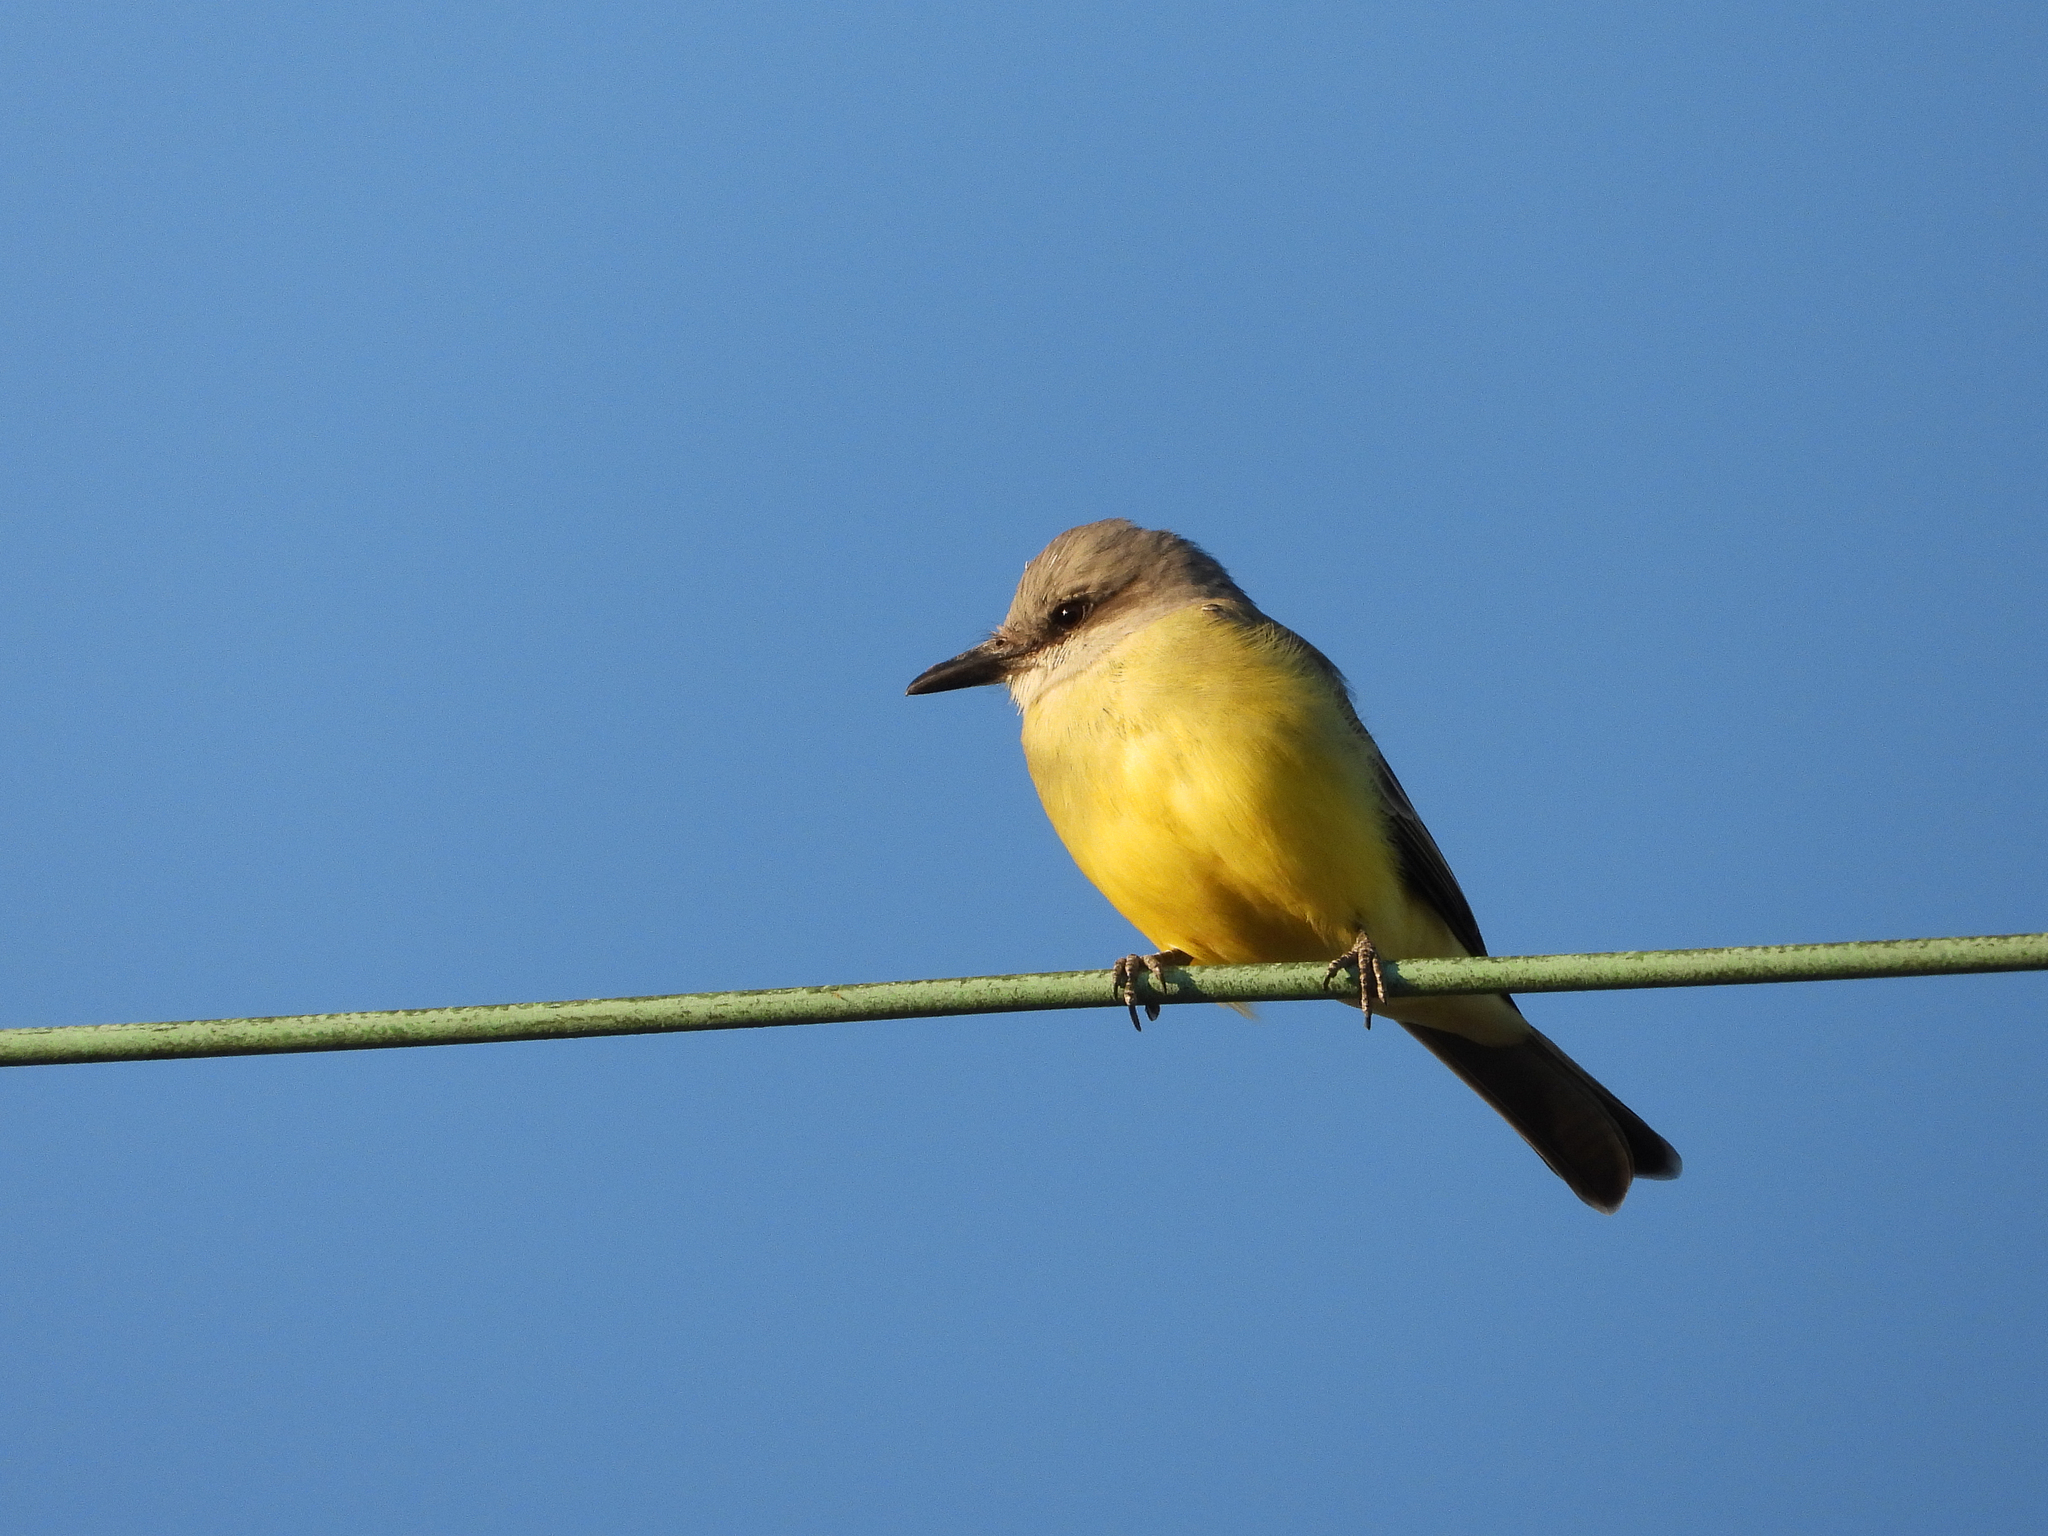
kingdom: Animalia
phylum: Chordata
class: Aves
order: Passeriformes
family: Tyrannidae
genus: Tyrannus
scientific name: Tyrannus melancholicus
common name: Tropical kingbird
